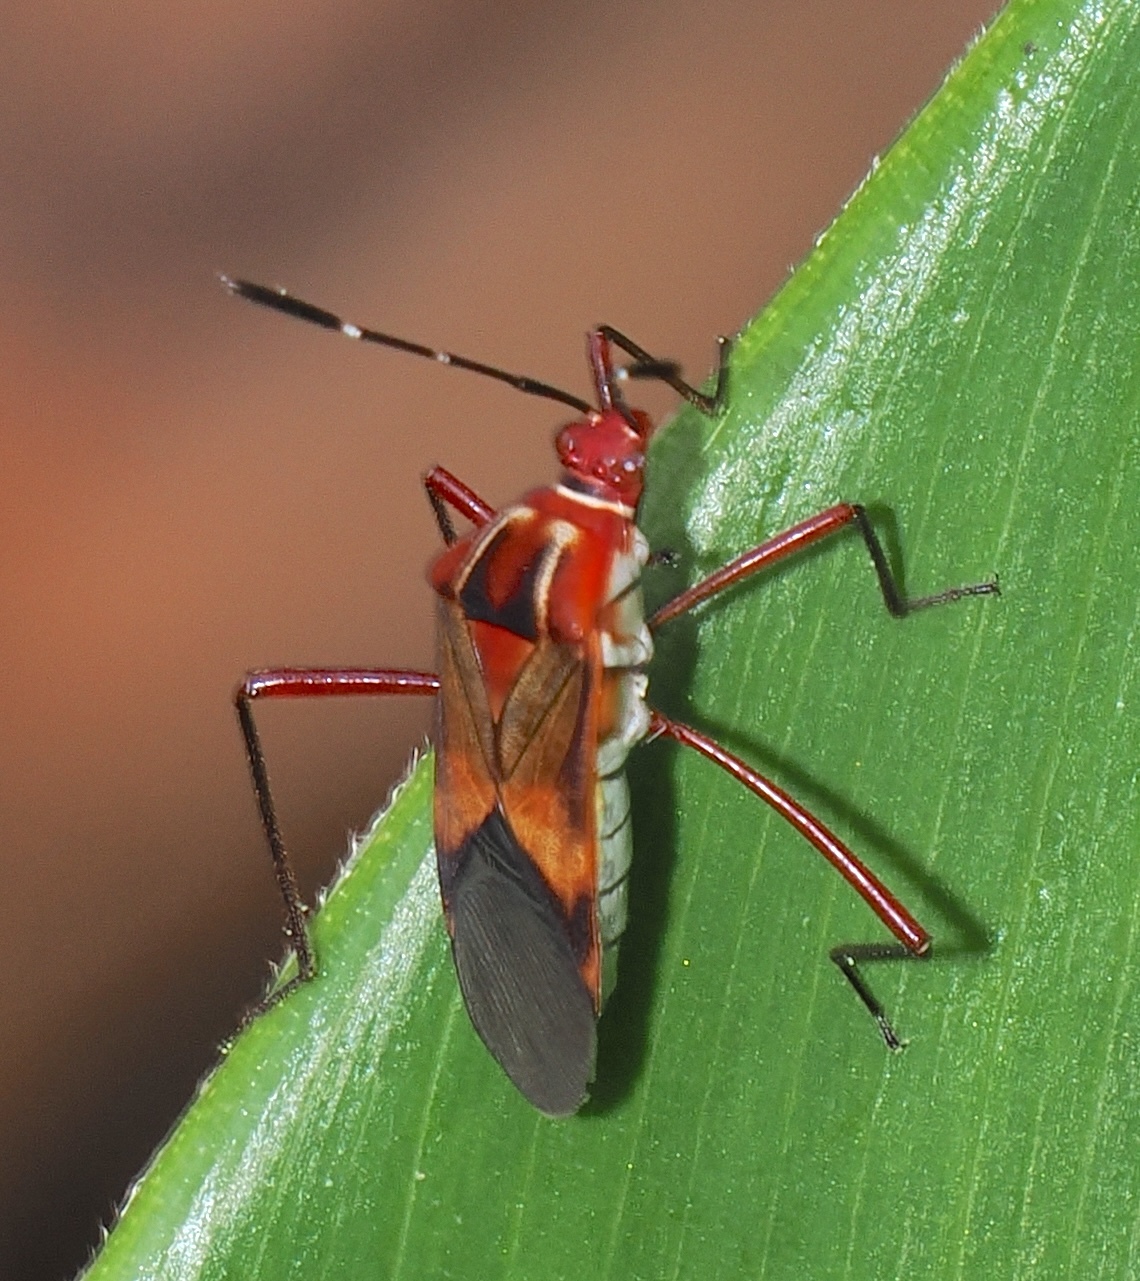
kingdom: Animalia
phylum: Arthropoda
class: Insecta
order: Hemiptera
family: Coreidae
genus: Hypselonotus
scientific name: Hypselonotus interruptus
